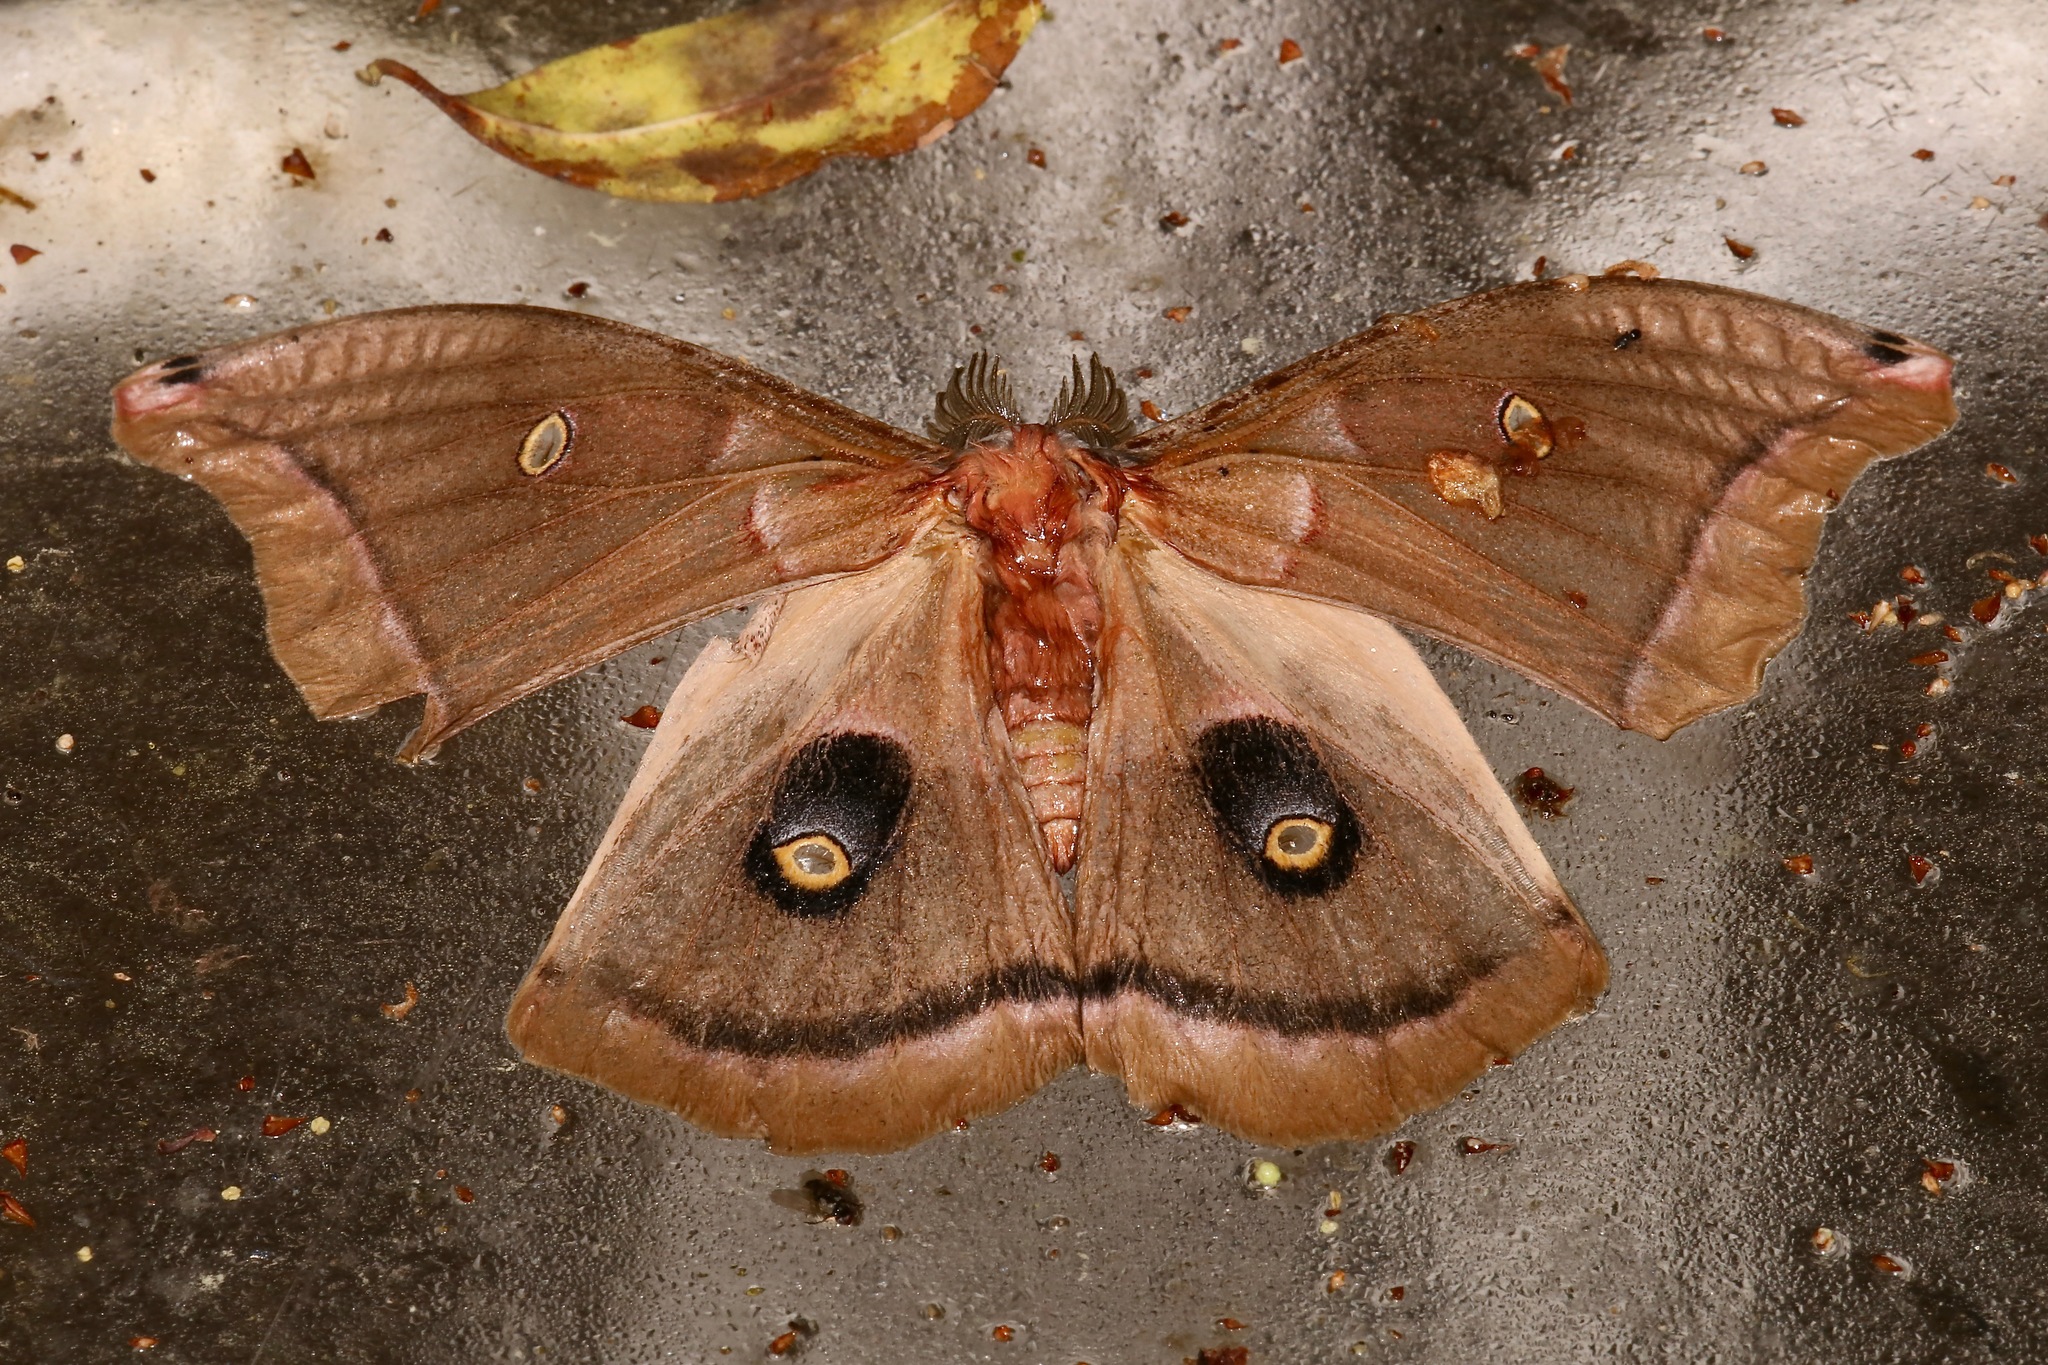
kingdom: Animalia
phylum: Arthropoda
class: Insecta
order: Lepidoptera
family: Saturniidae
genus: Antheraea
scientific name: Antheraea polyphemus
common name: Polyphemus moth
